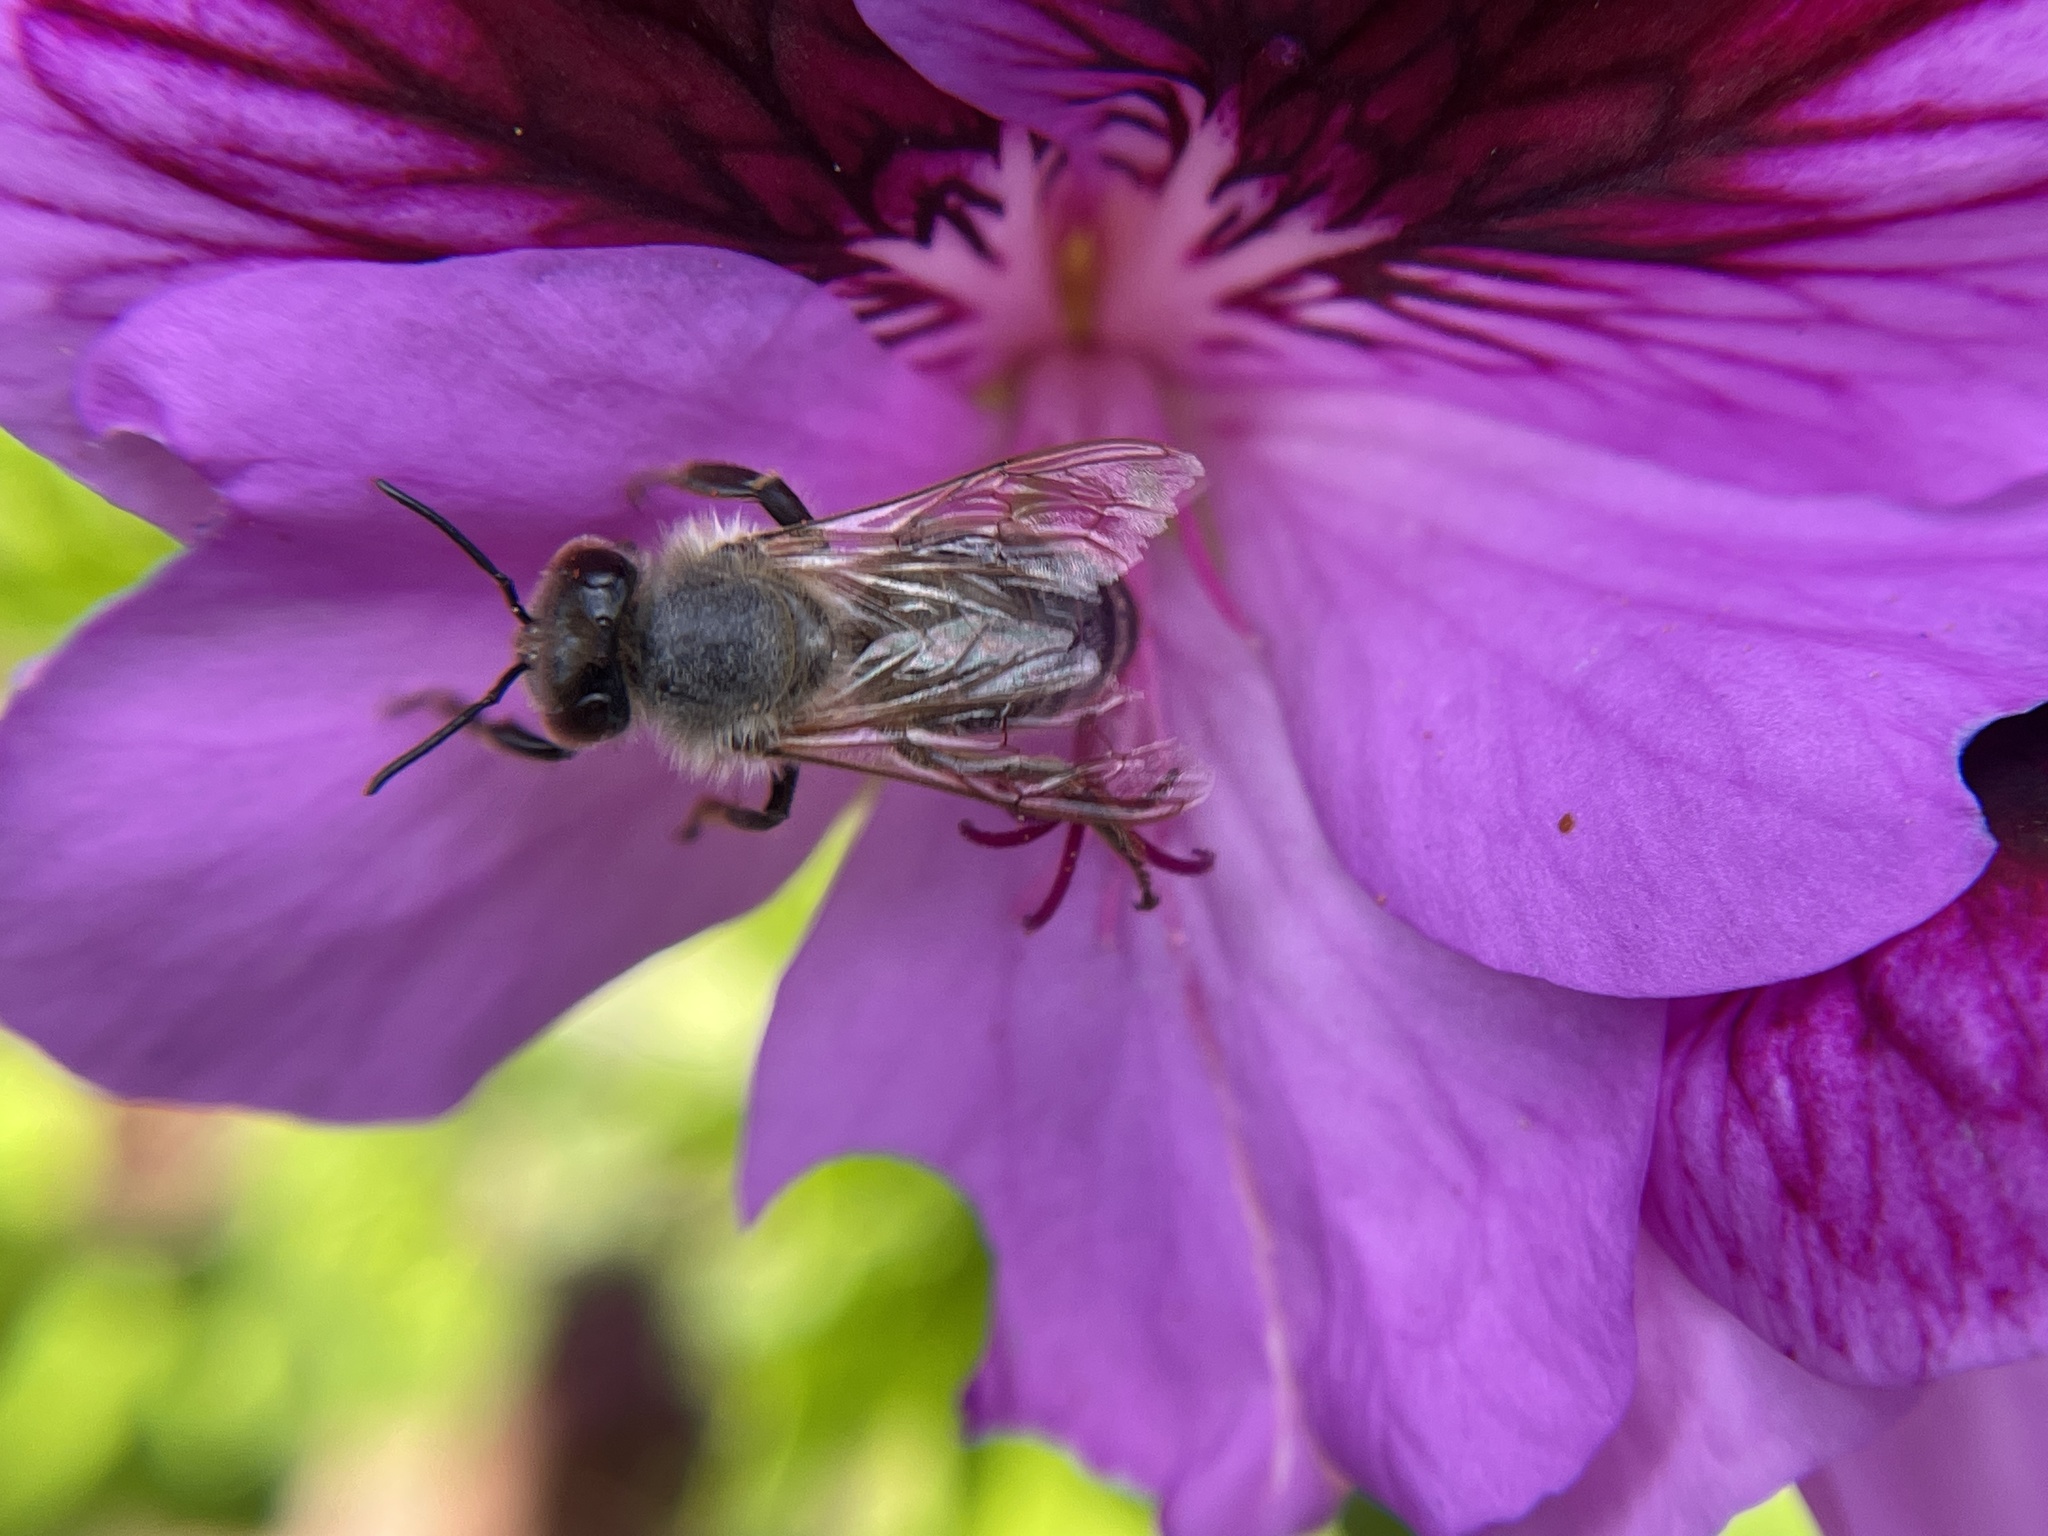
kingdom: Animalia
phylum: Arthropoda
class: Insecta
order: Hymenoptera
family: Apidae
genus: Apis
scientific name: Apis mellifera
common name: Honey bee
